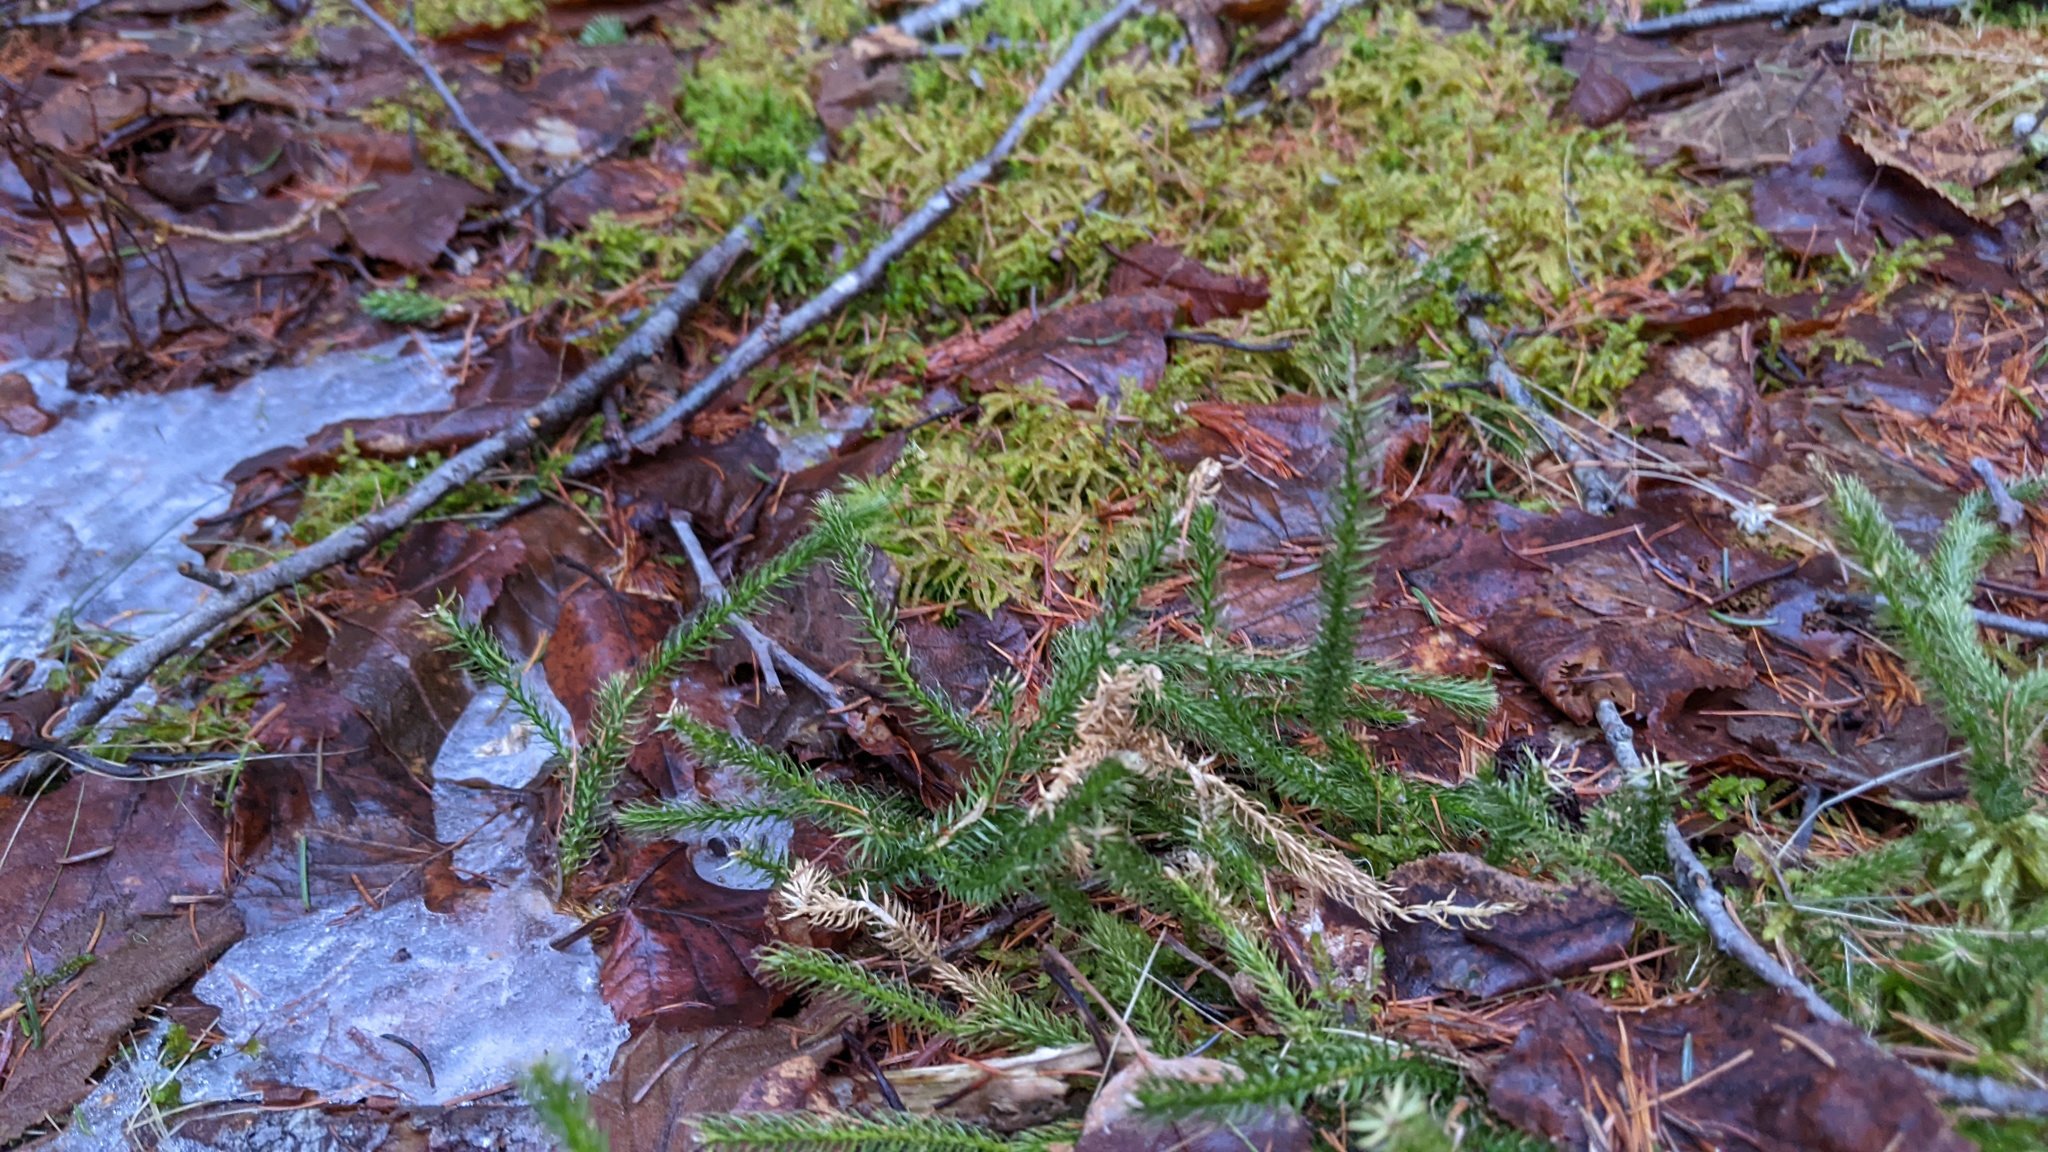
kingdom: Plantae
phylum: Tracheophyta
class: Lycopodiopsida
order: Lycopodiales
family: Lycopodiaceae
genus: Lycopodium
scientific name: Lycopodium clavatum
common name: Stag's-horn clubmoss
